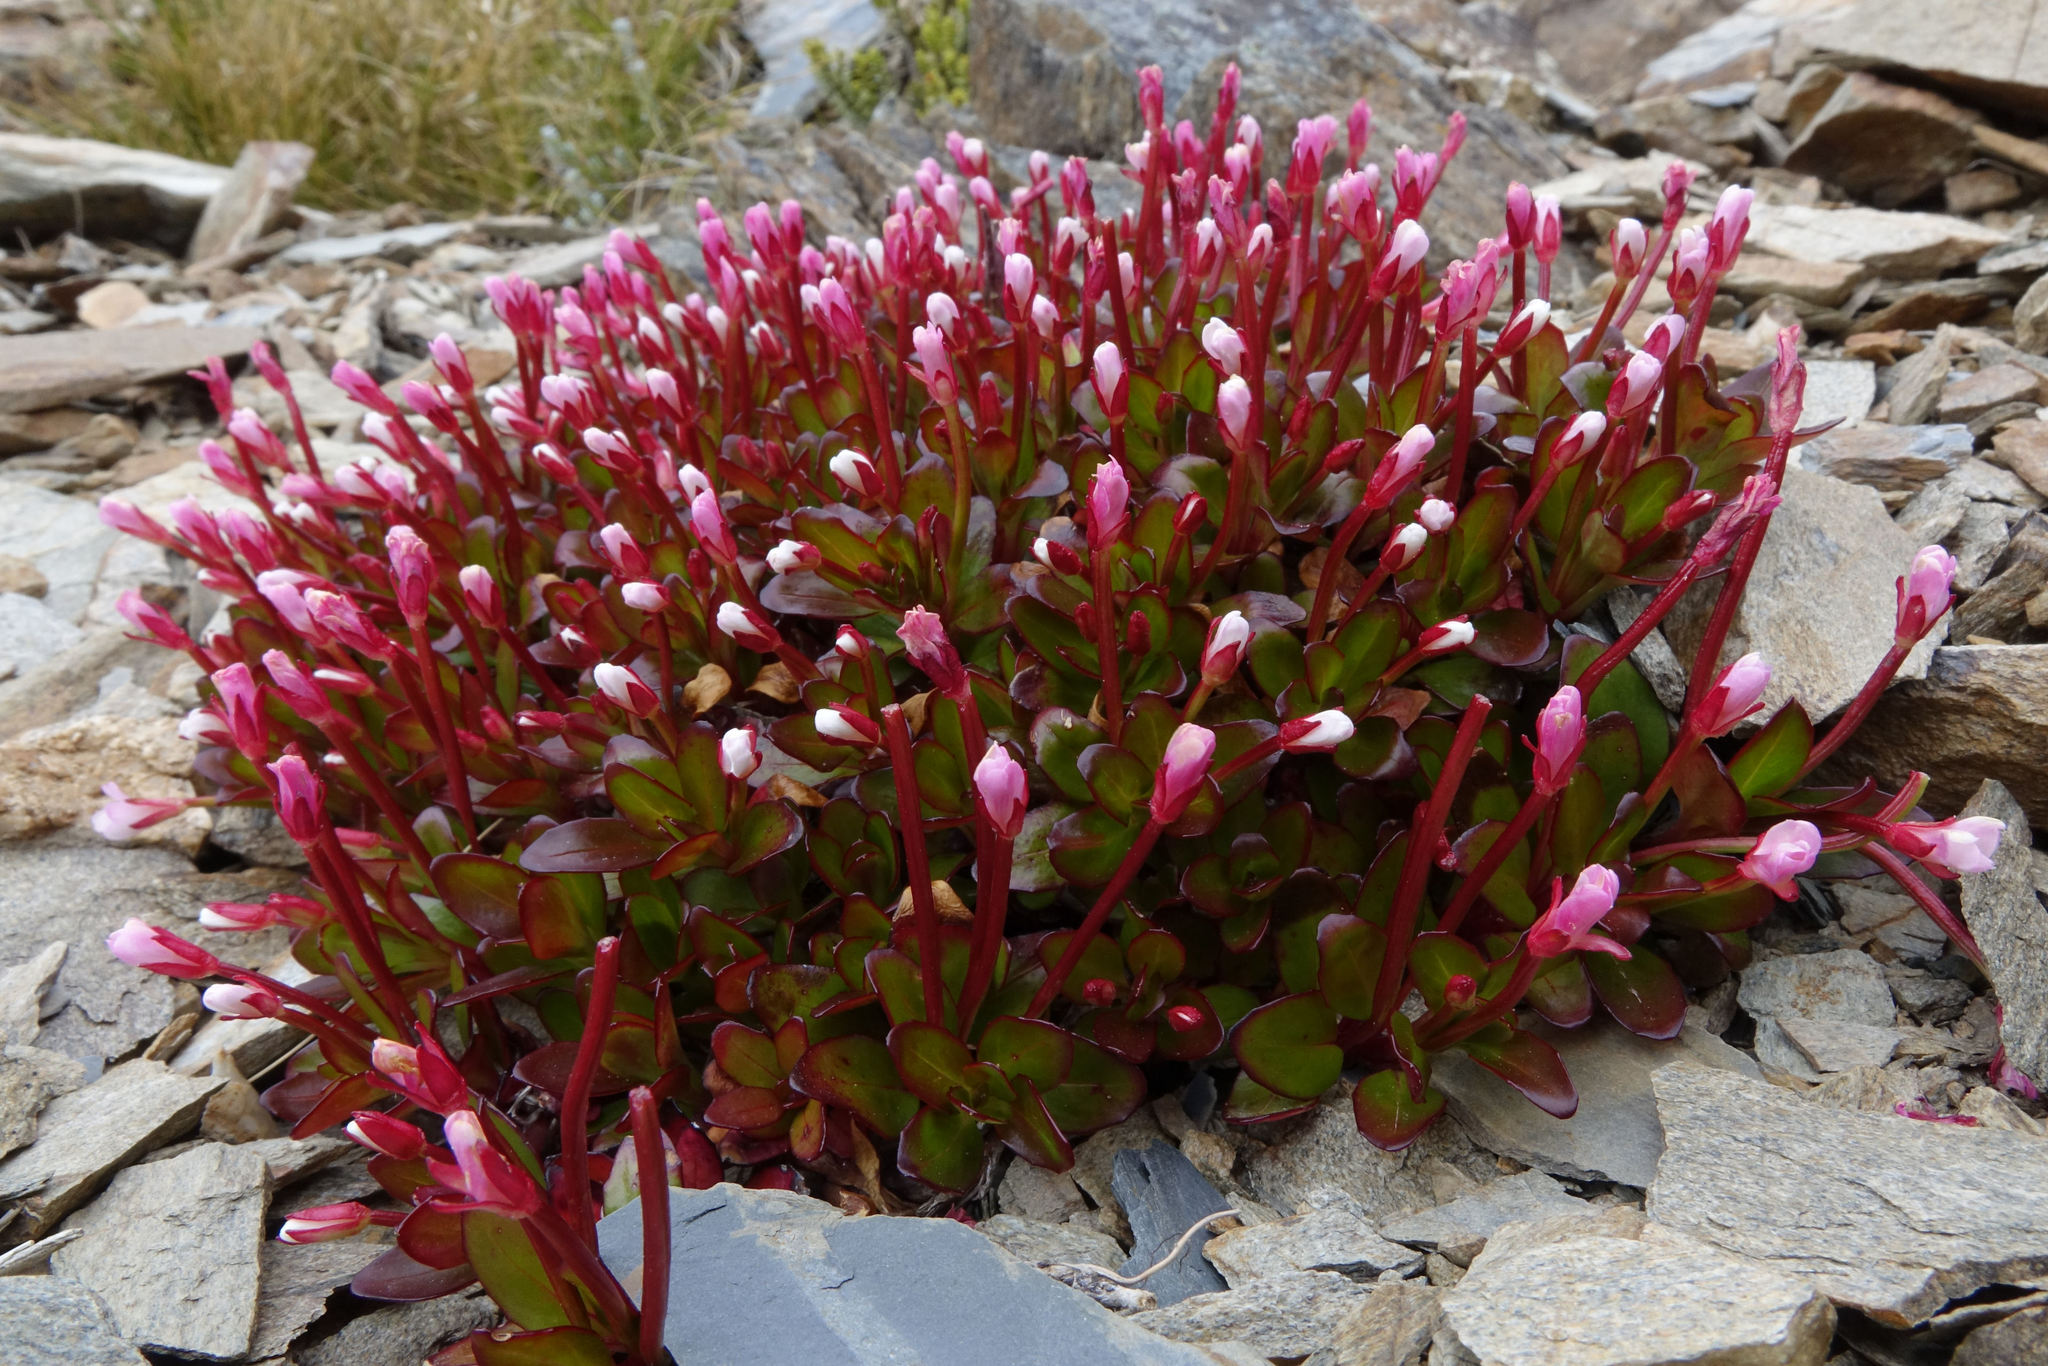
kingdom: Plantae
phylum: Tracheophyta
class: Magnoliopsida
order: Myrtales
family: Onagraceae
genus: Epilobium
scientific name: Epilobium crassum
